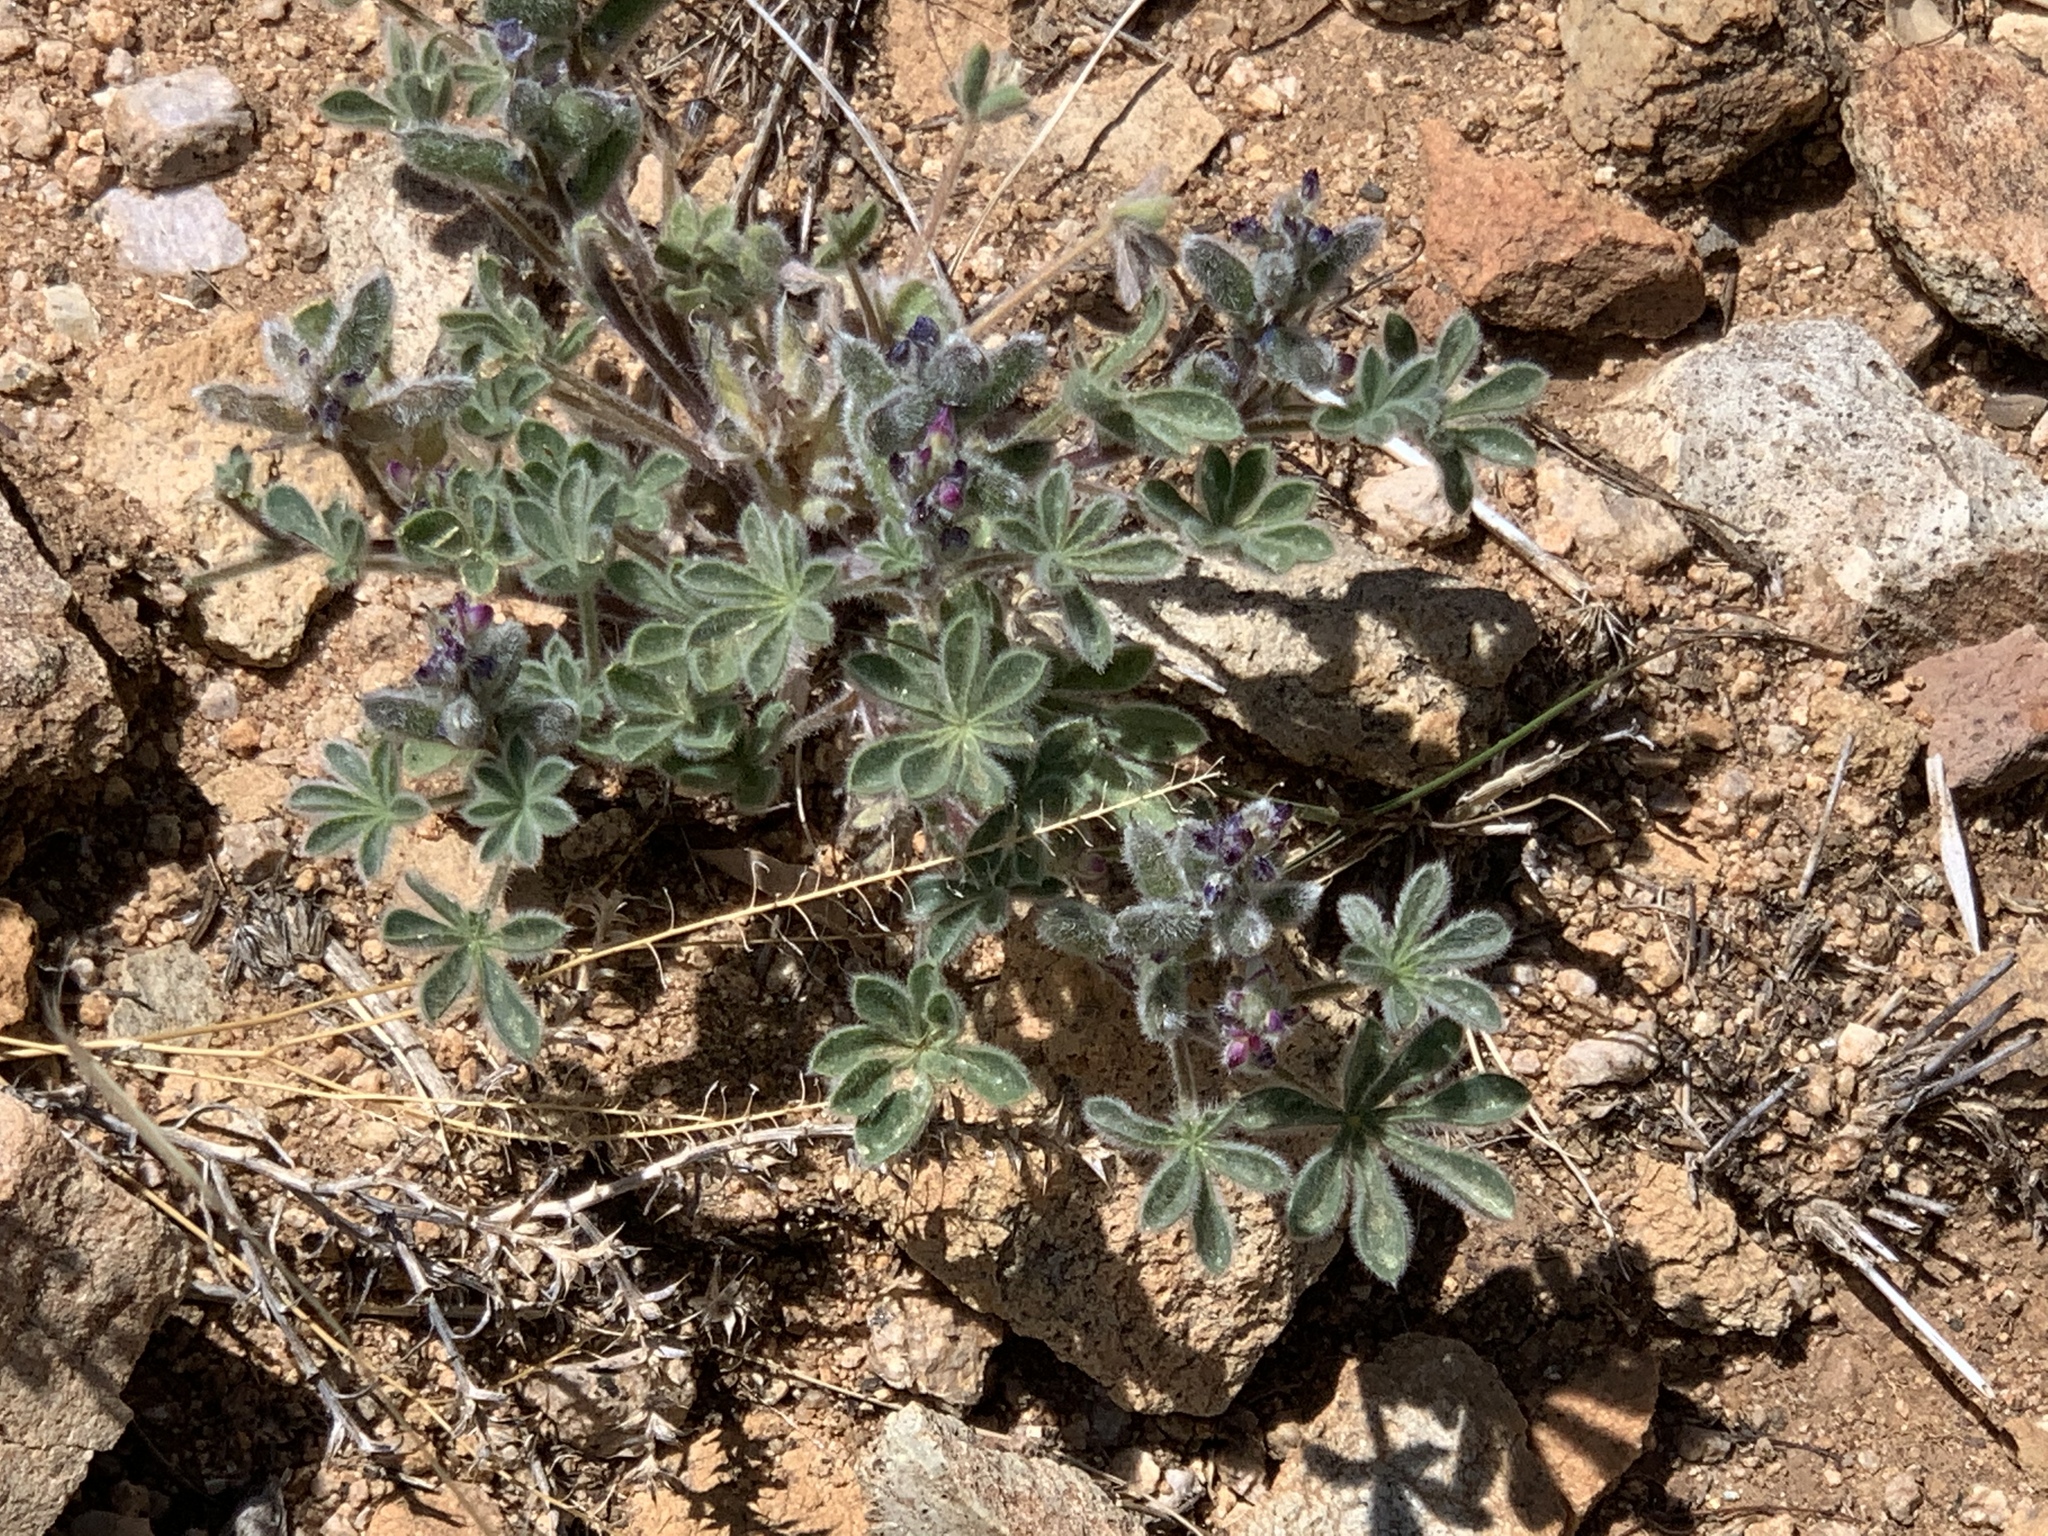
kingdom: Plantae
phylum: Tracheophyta
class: Magnoliopsida
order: Fabales
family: Fabaceae
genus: Lupinus
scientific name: Lupinus concinnus
